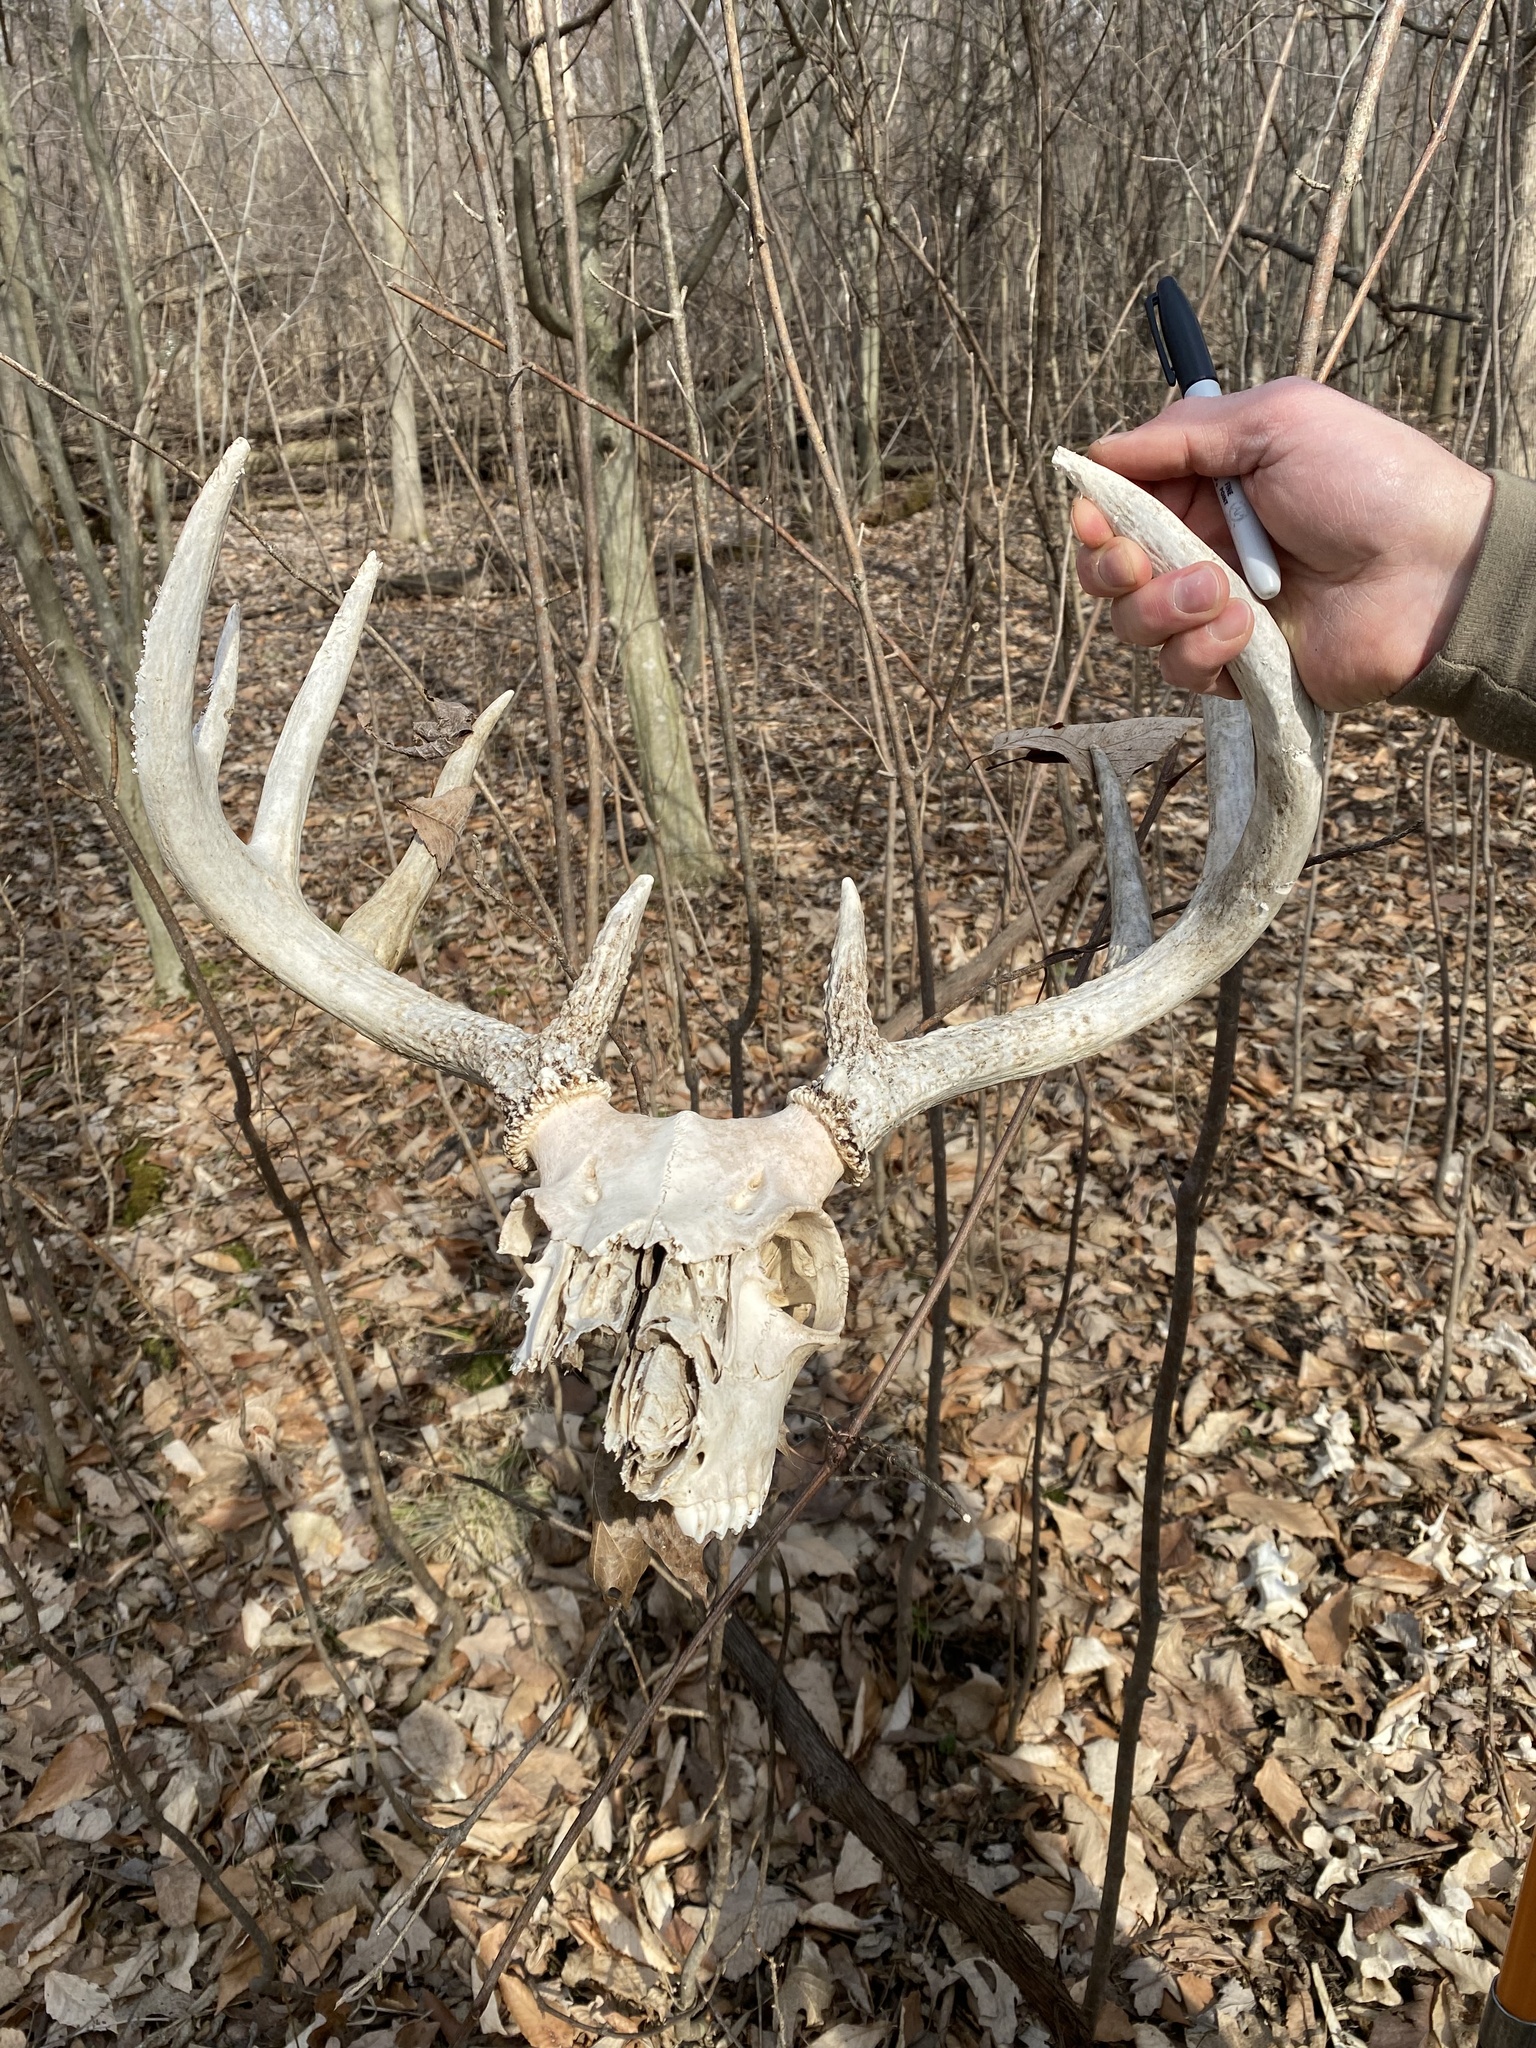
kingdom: Animalia
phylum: Chordata
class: Mammalia
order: Artiodactyla
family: Cervidae
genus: Odocoileus
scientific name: Odocoileus virginianus
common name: White-tailed deer
